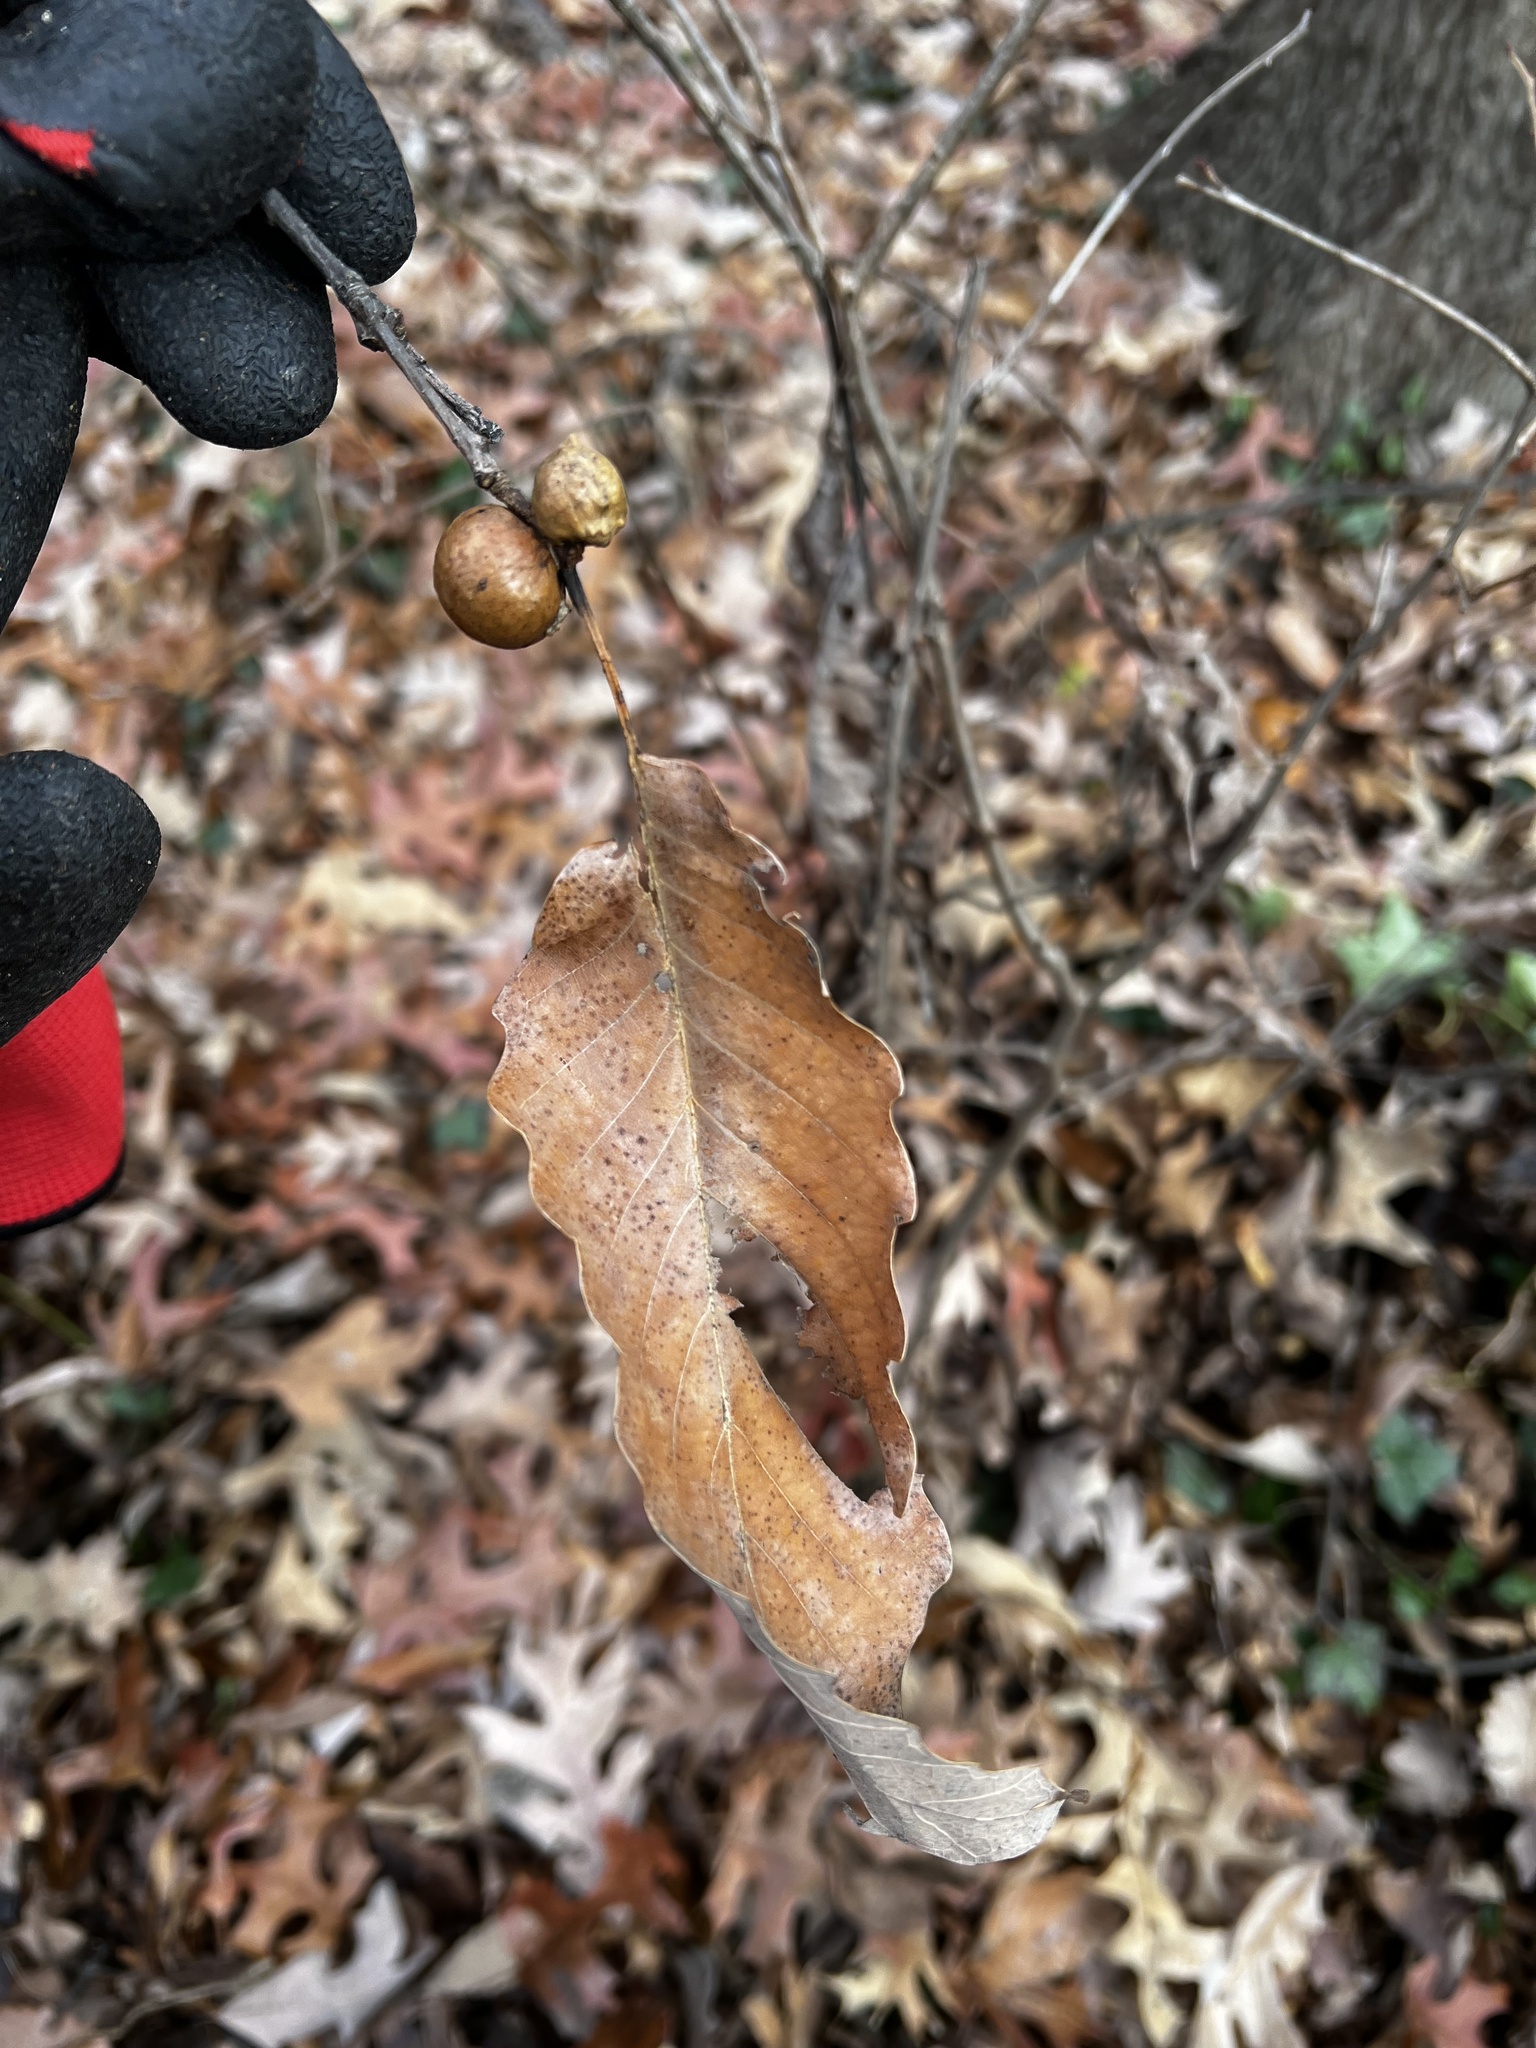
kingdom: Animalia
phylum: Arthropoda
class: Insecta
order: Hymenoptera
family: Cynipidae
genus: Disholcaspis
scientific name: Disholcaspis quercusglobulus
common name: Round bullet gall wasp
